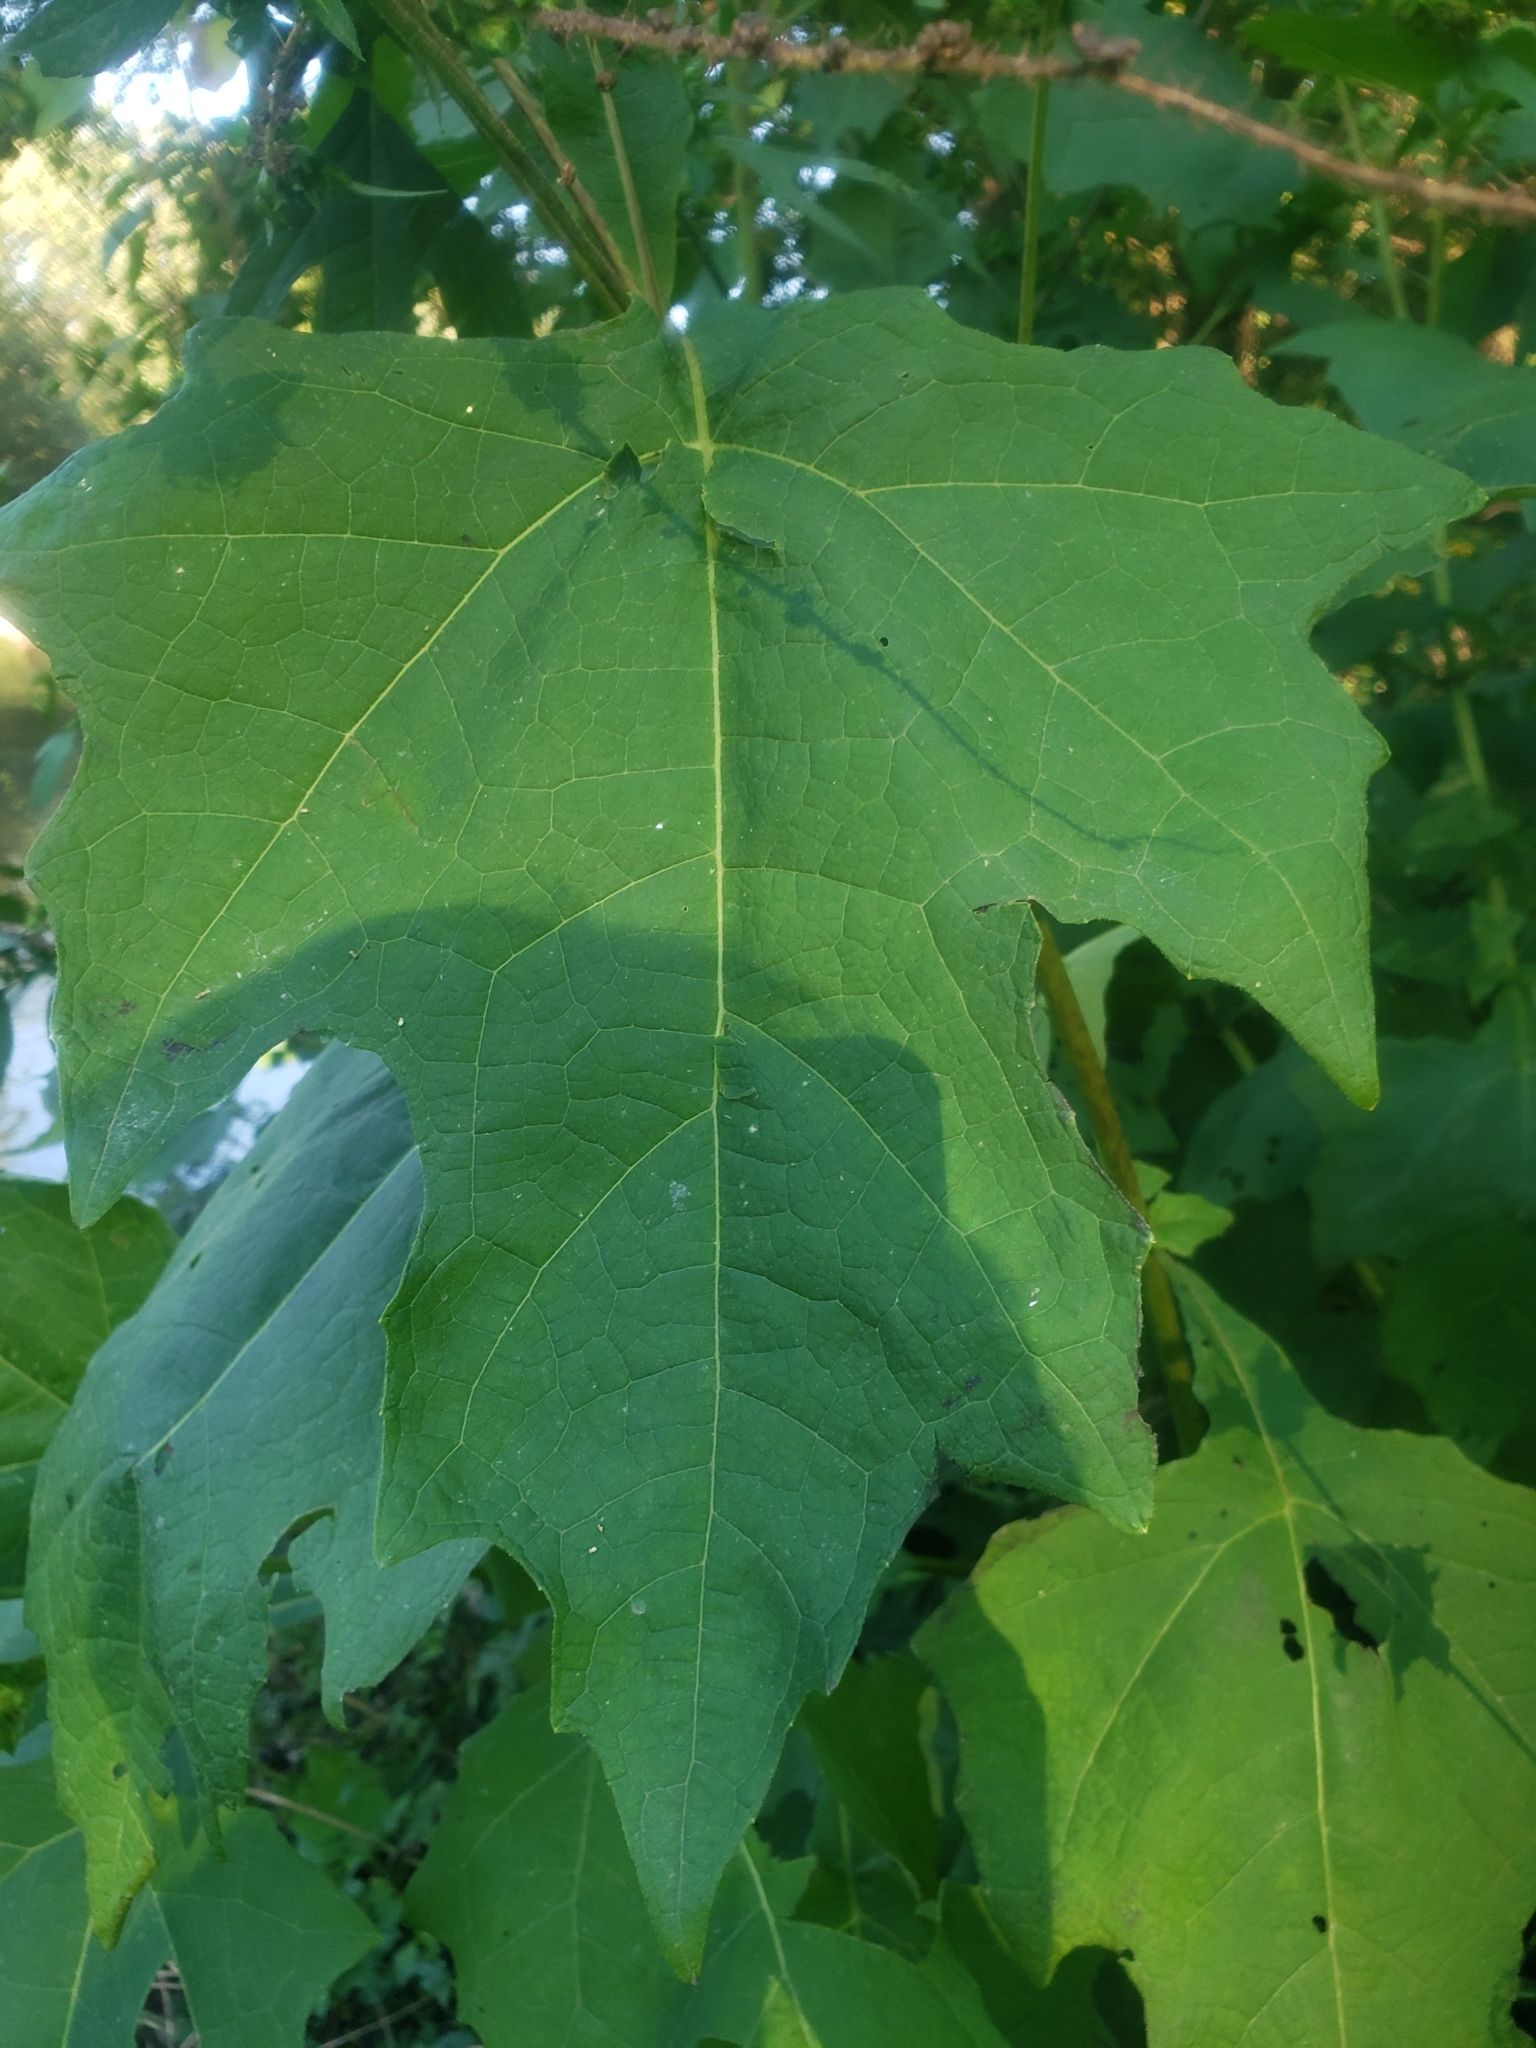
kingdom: Plantae
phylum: Tracheophyta
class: Magnoliopsida
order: Asterales
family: Asteraceae
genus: Smallanthus
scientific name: Smallanthus uvedalia
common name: Bear's-foot
